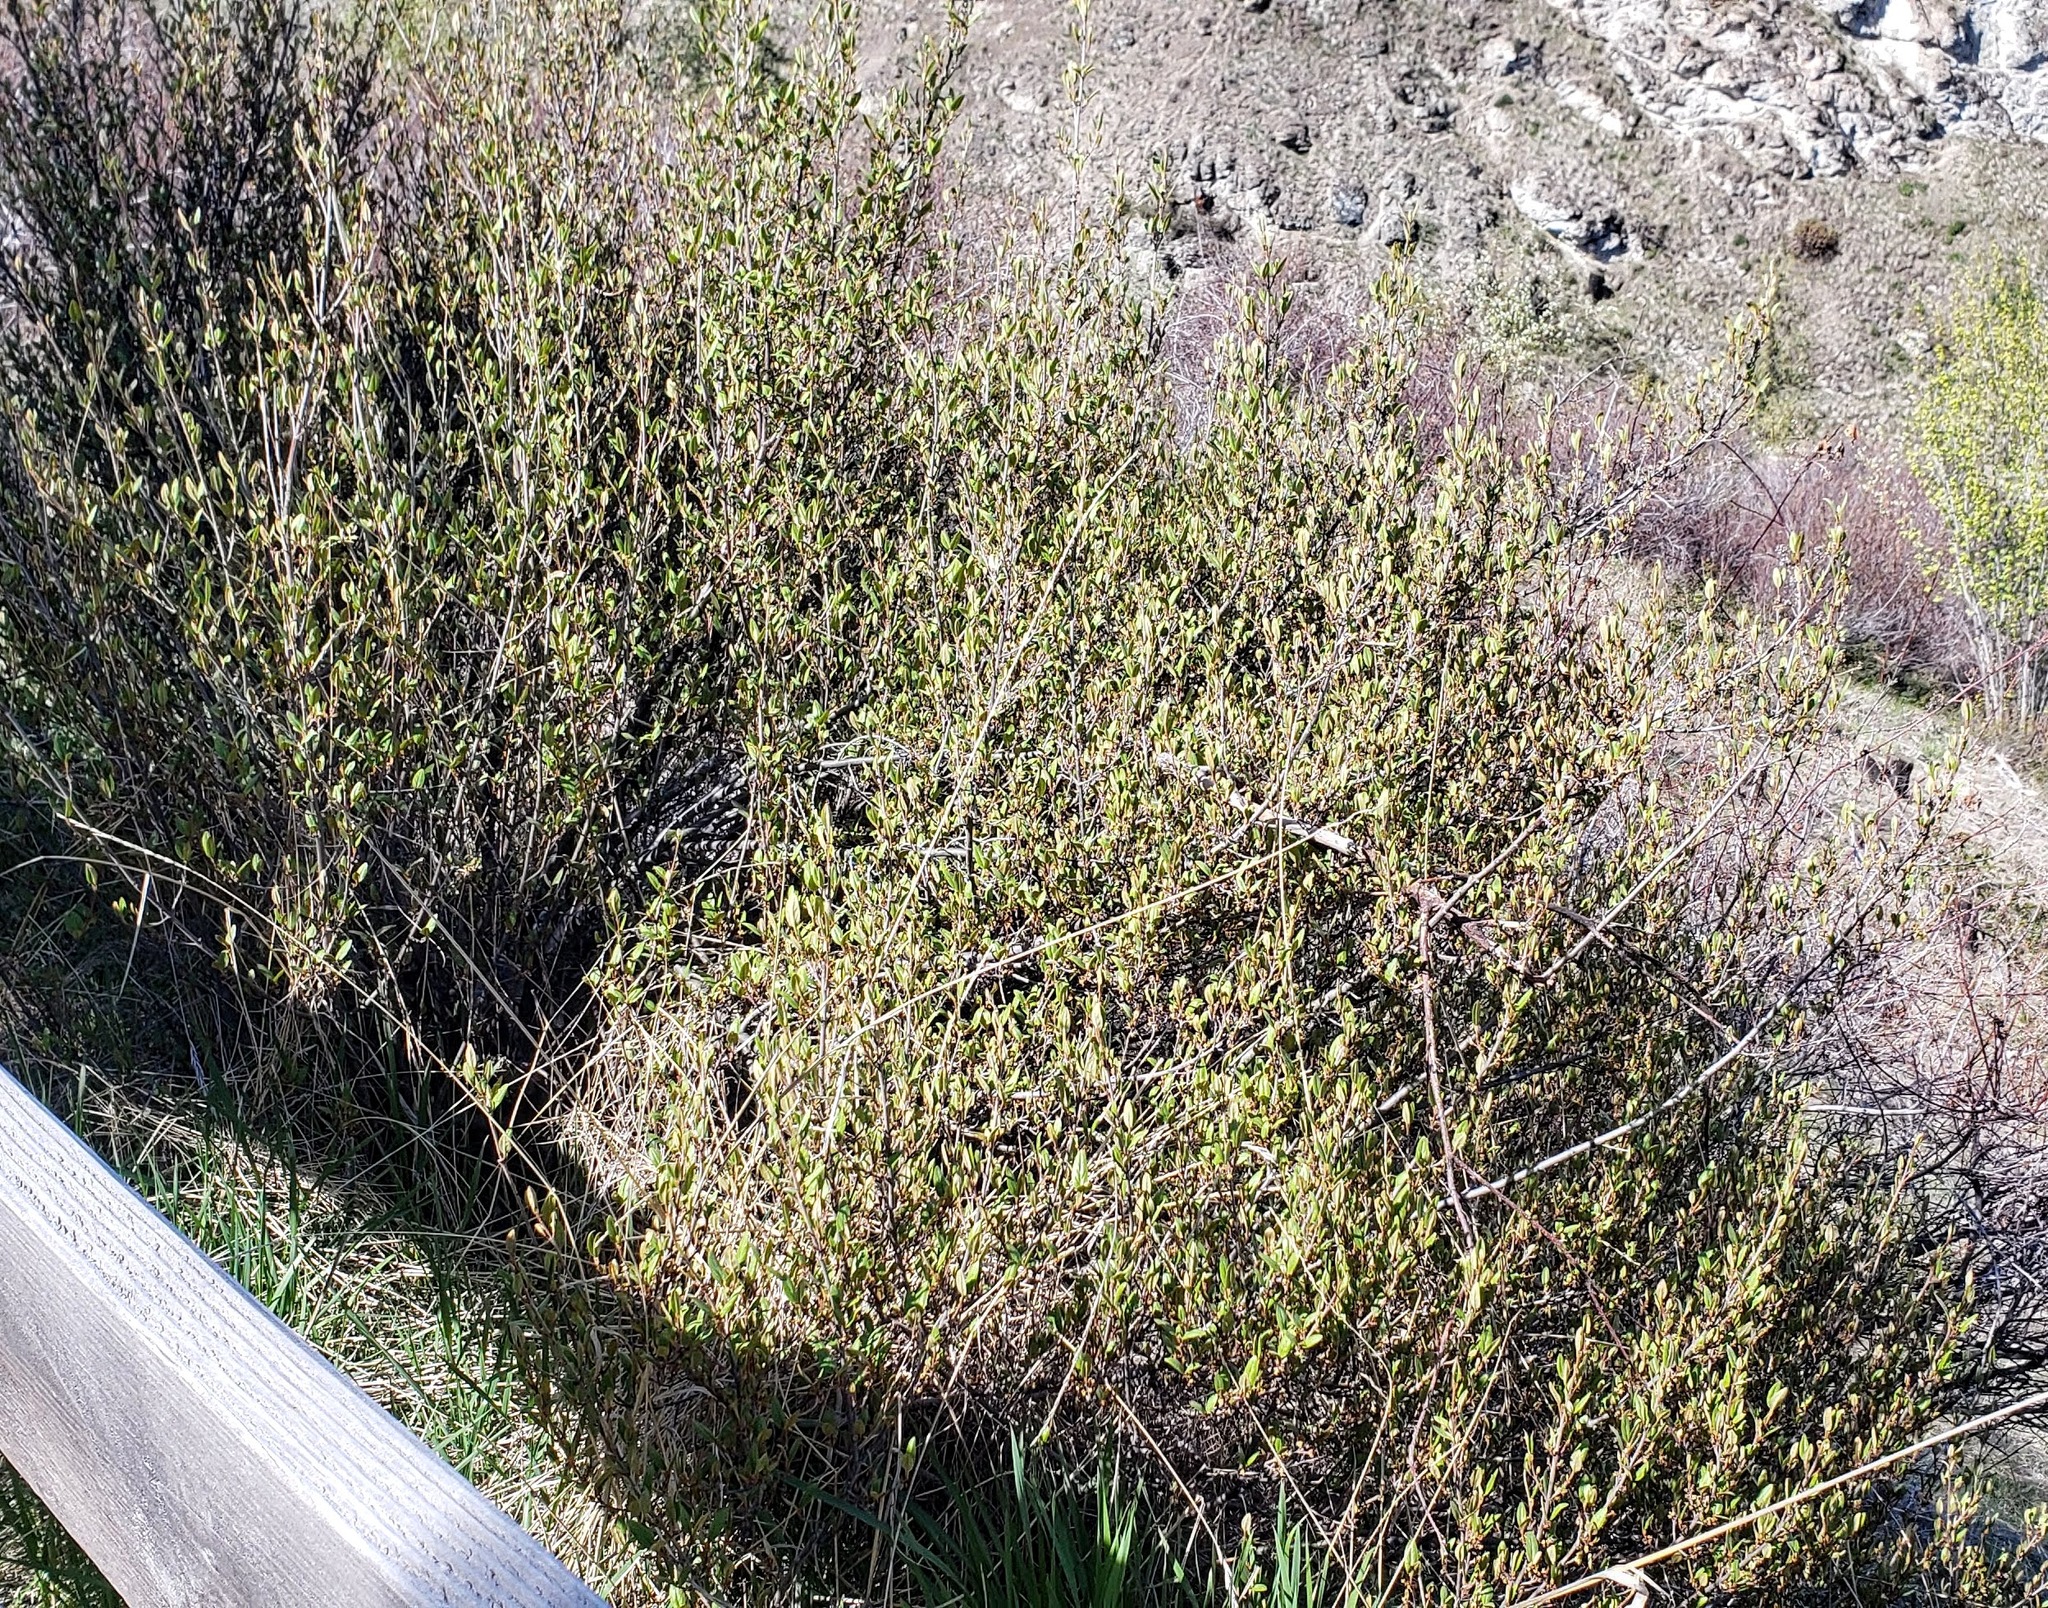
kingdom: Plantae
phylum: Tracheophyta
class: Magnoliopsida
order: Rosales
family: Elaeagnaceae
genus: Shepherdia
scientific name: Shepherdia canadensis
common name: Soapberry
